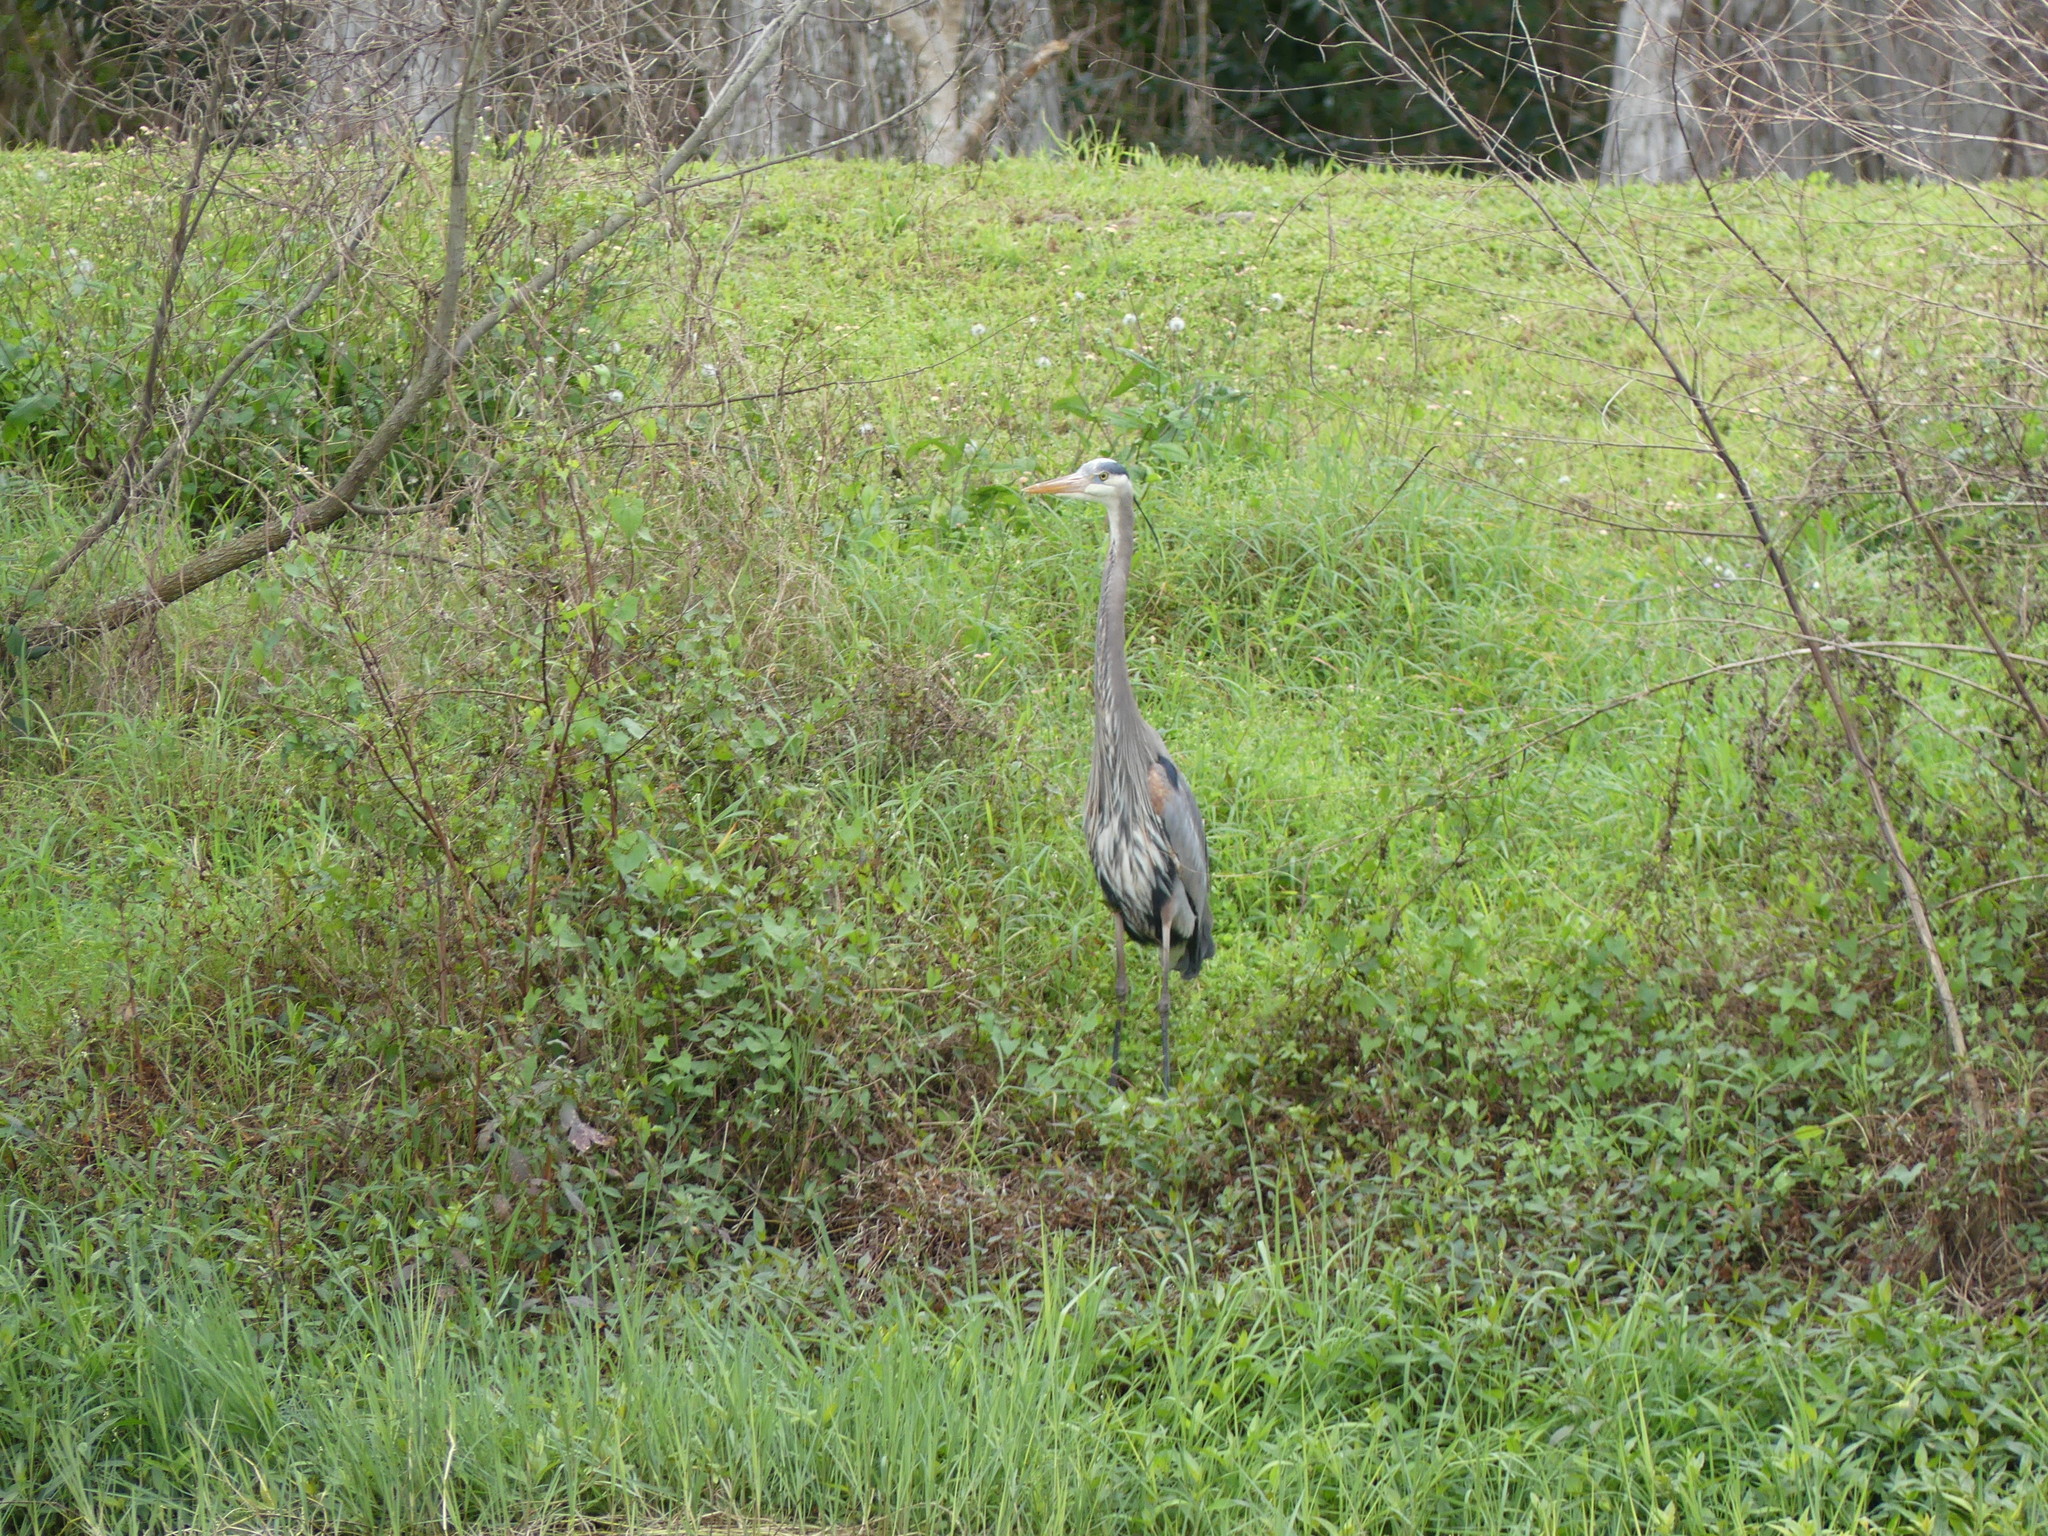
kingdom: Animalia
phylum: Chordata
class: Aves
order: Pelecaniformes
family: Ardeidae
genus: Ardea
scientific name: Ardea herodias
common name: Great blue heron
